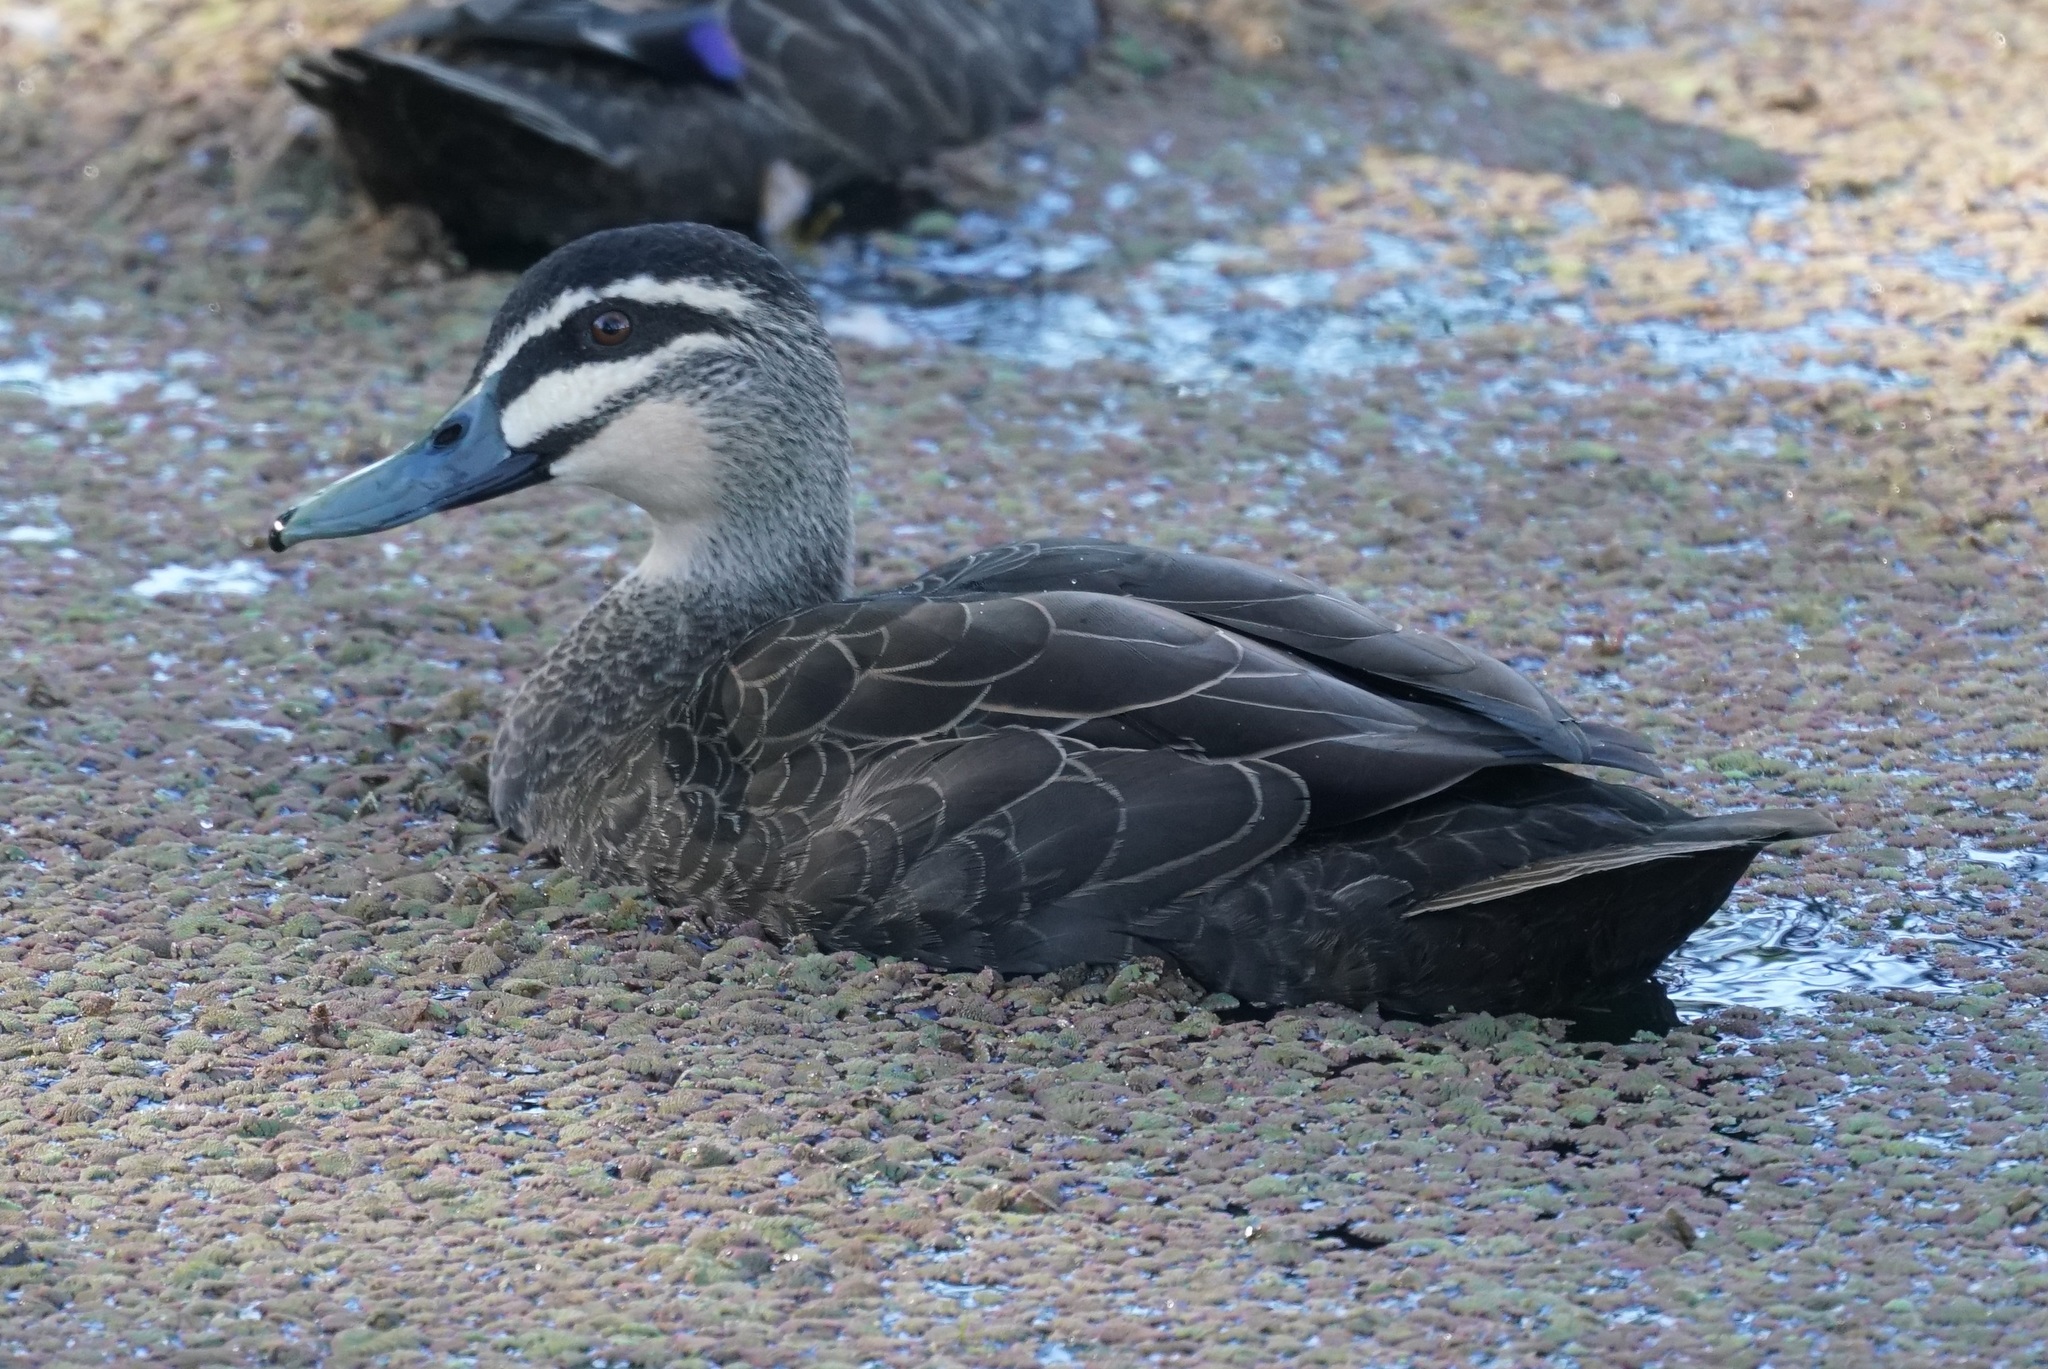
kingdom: Animalia
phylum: Chordata
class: Aves
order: Anseriformes
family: Anatidae
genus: Anas
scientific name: Anas superciliosa
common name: Pacific black duck
